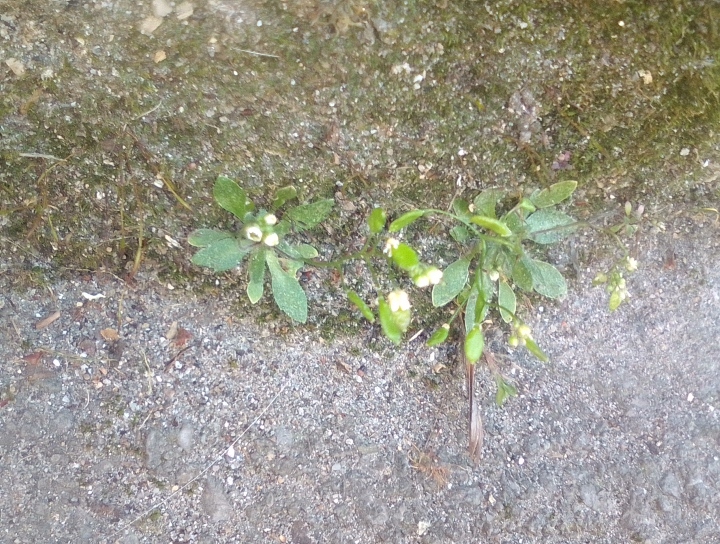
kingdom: Plantae
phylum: Tracheophyta
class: Magnoliopsida
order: Brassicales
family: Brassicaceae
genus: Draba
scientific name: Draba verna
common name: Spring draba
